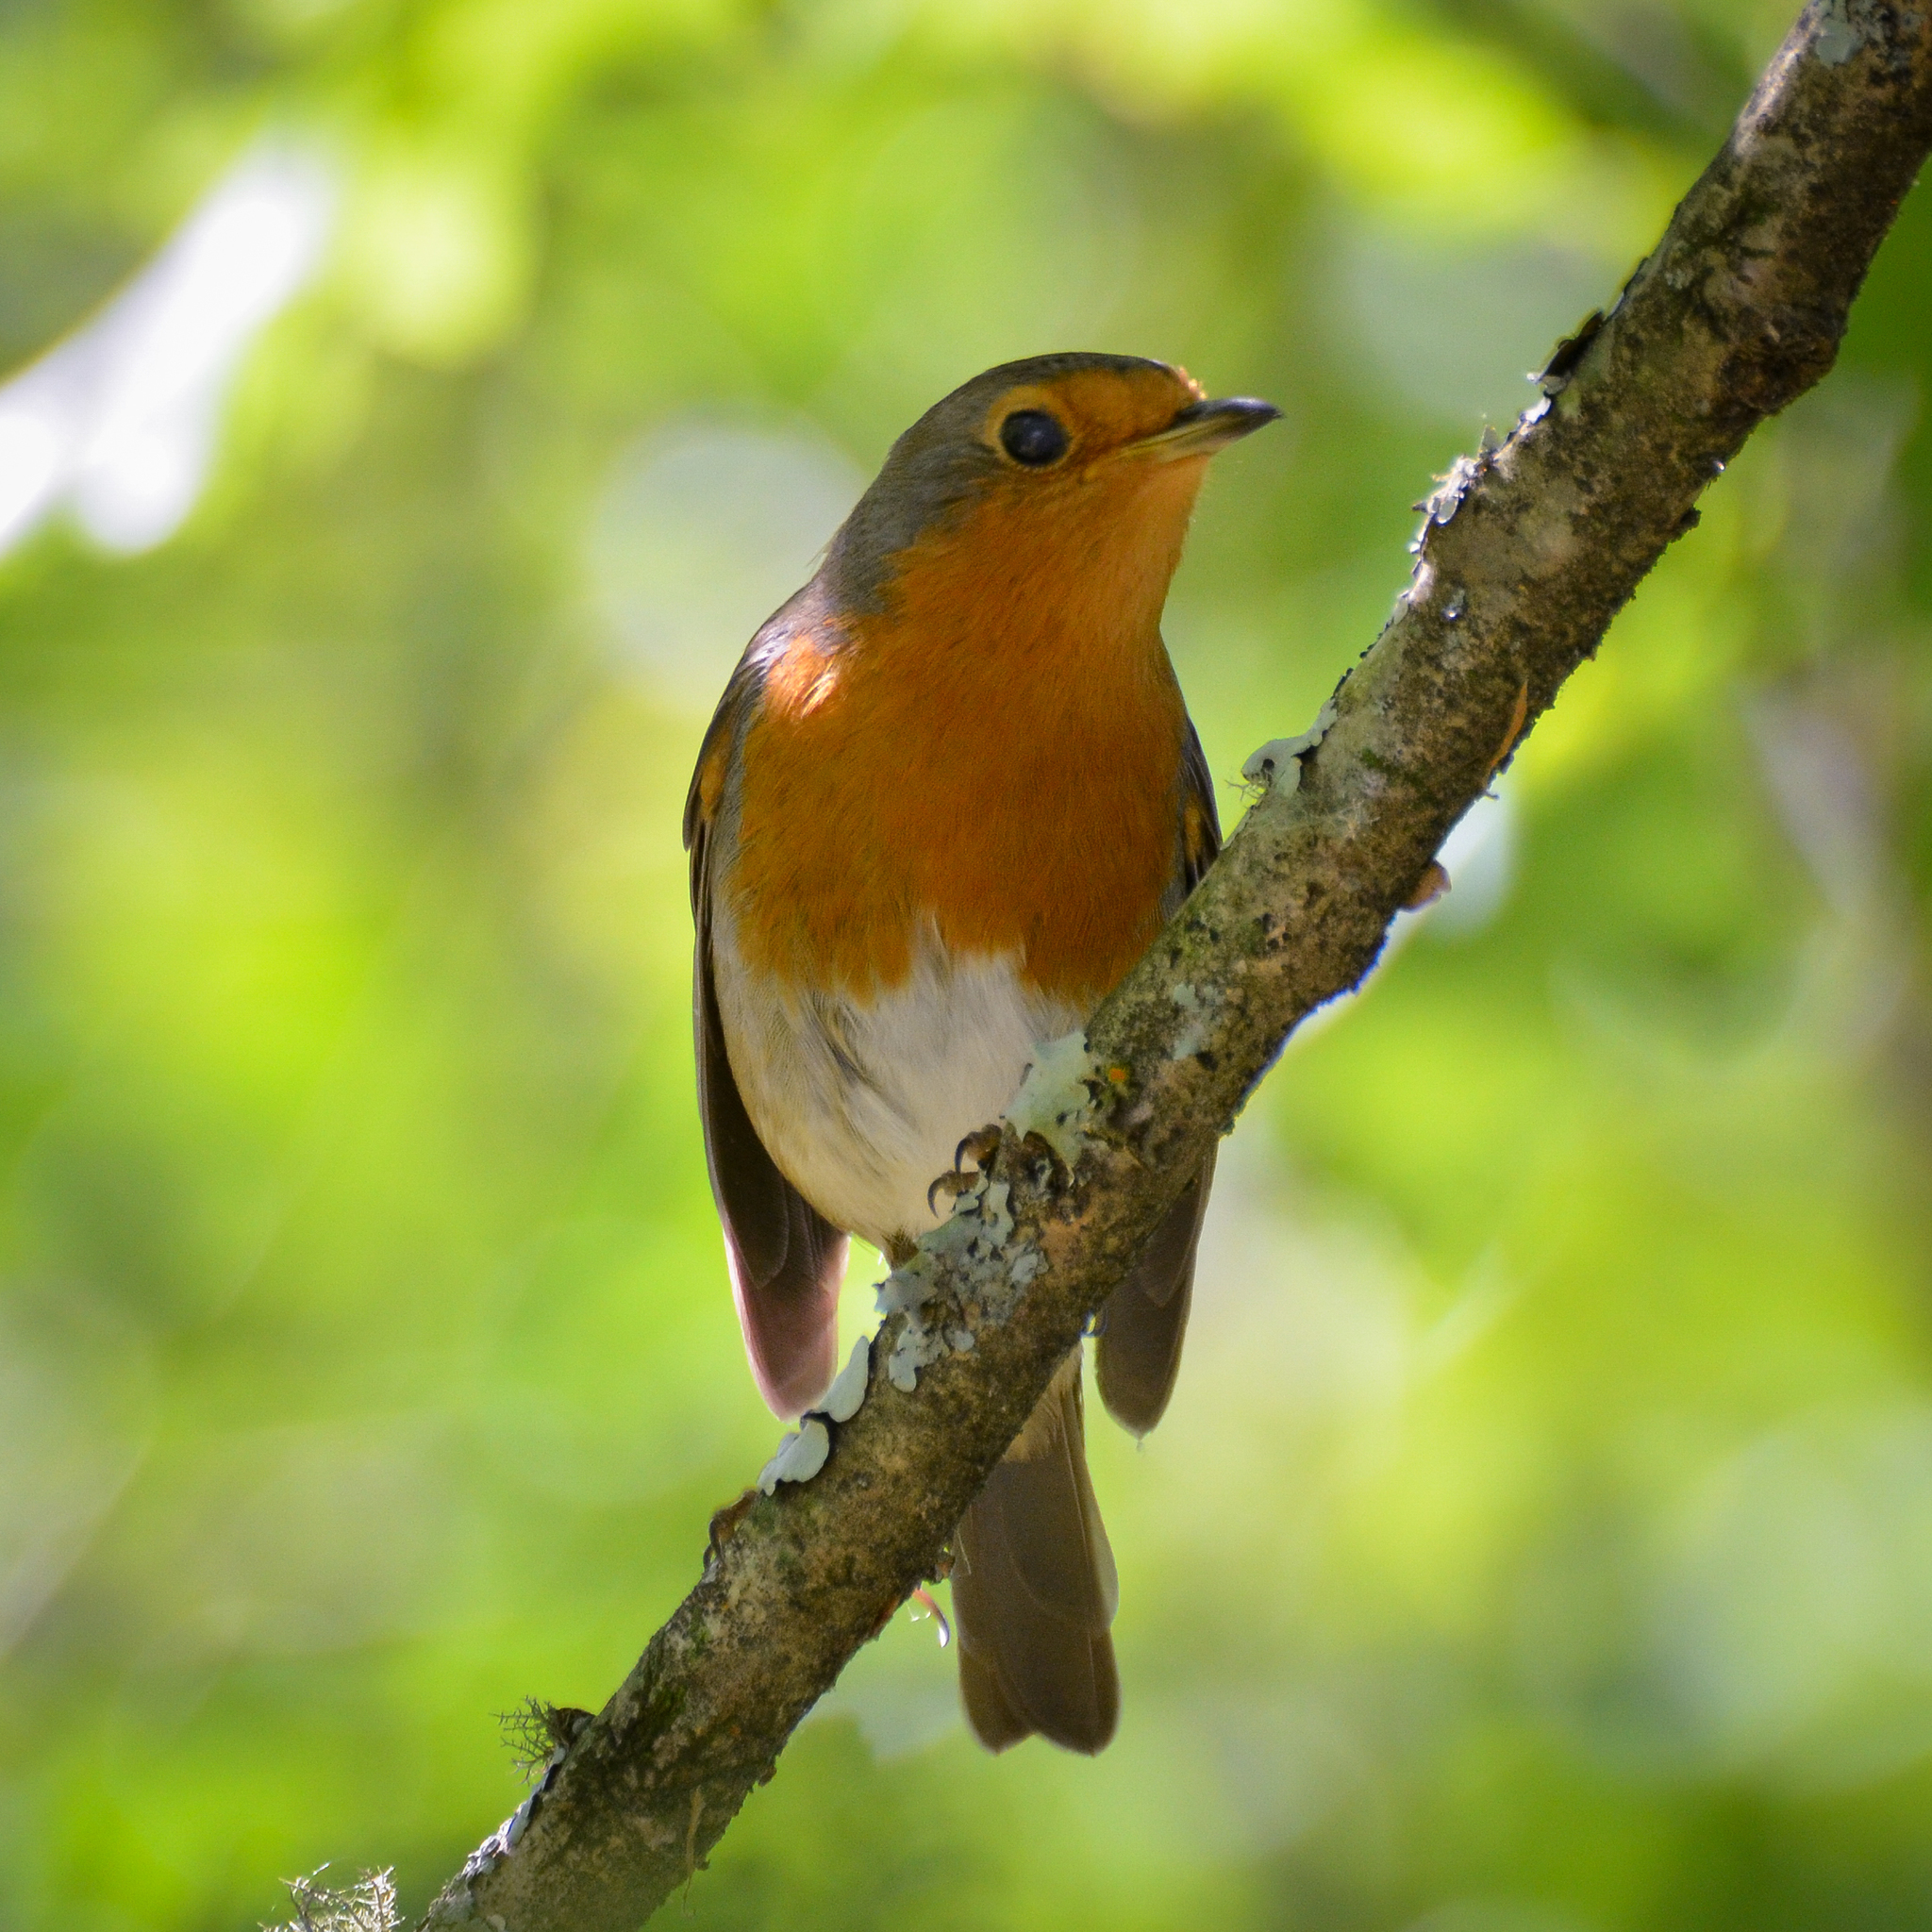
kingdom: Animalia
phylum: Chordata
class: Aves
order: Passeriformes
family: Muscicapidae
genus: Erithacus
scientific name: Erithacus rubecula
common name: European robin
